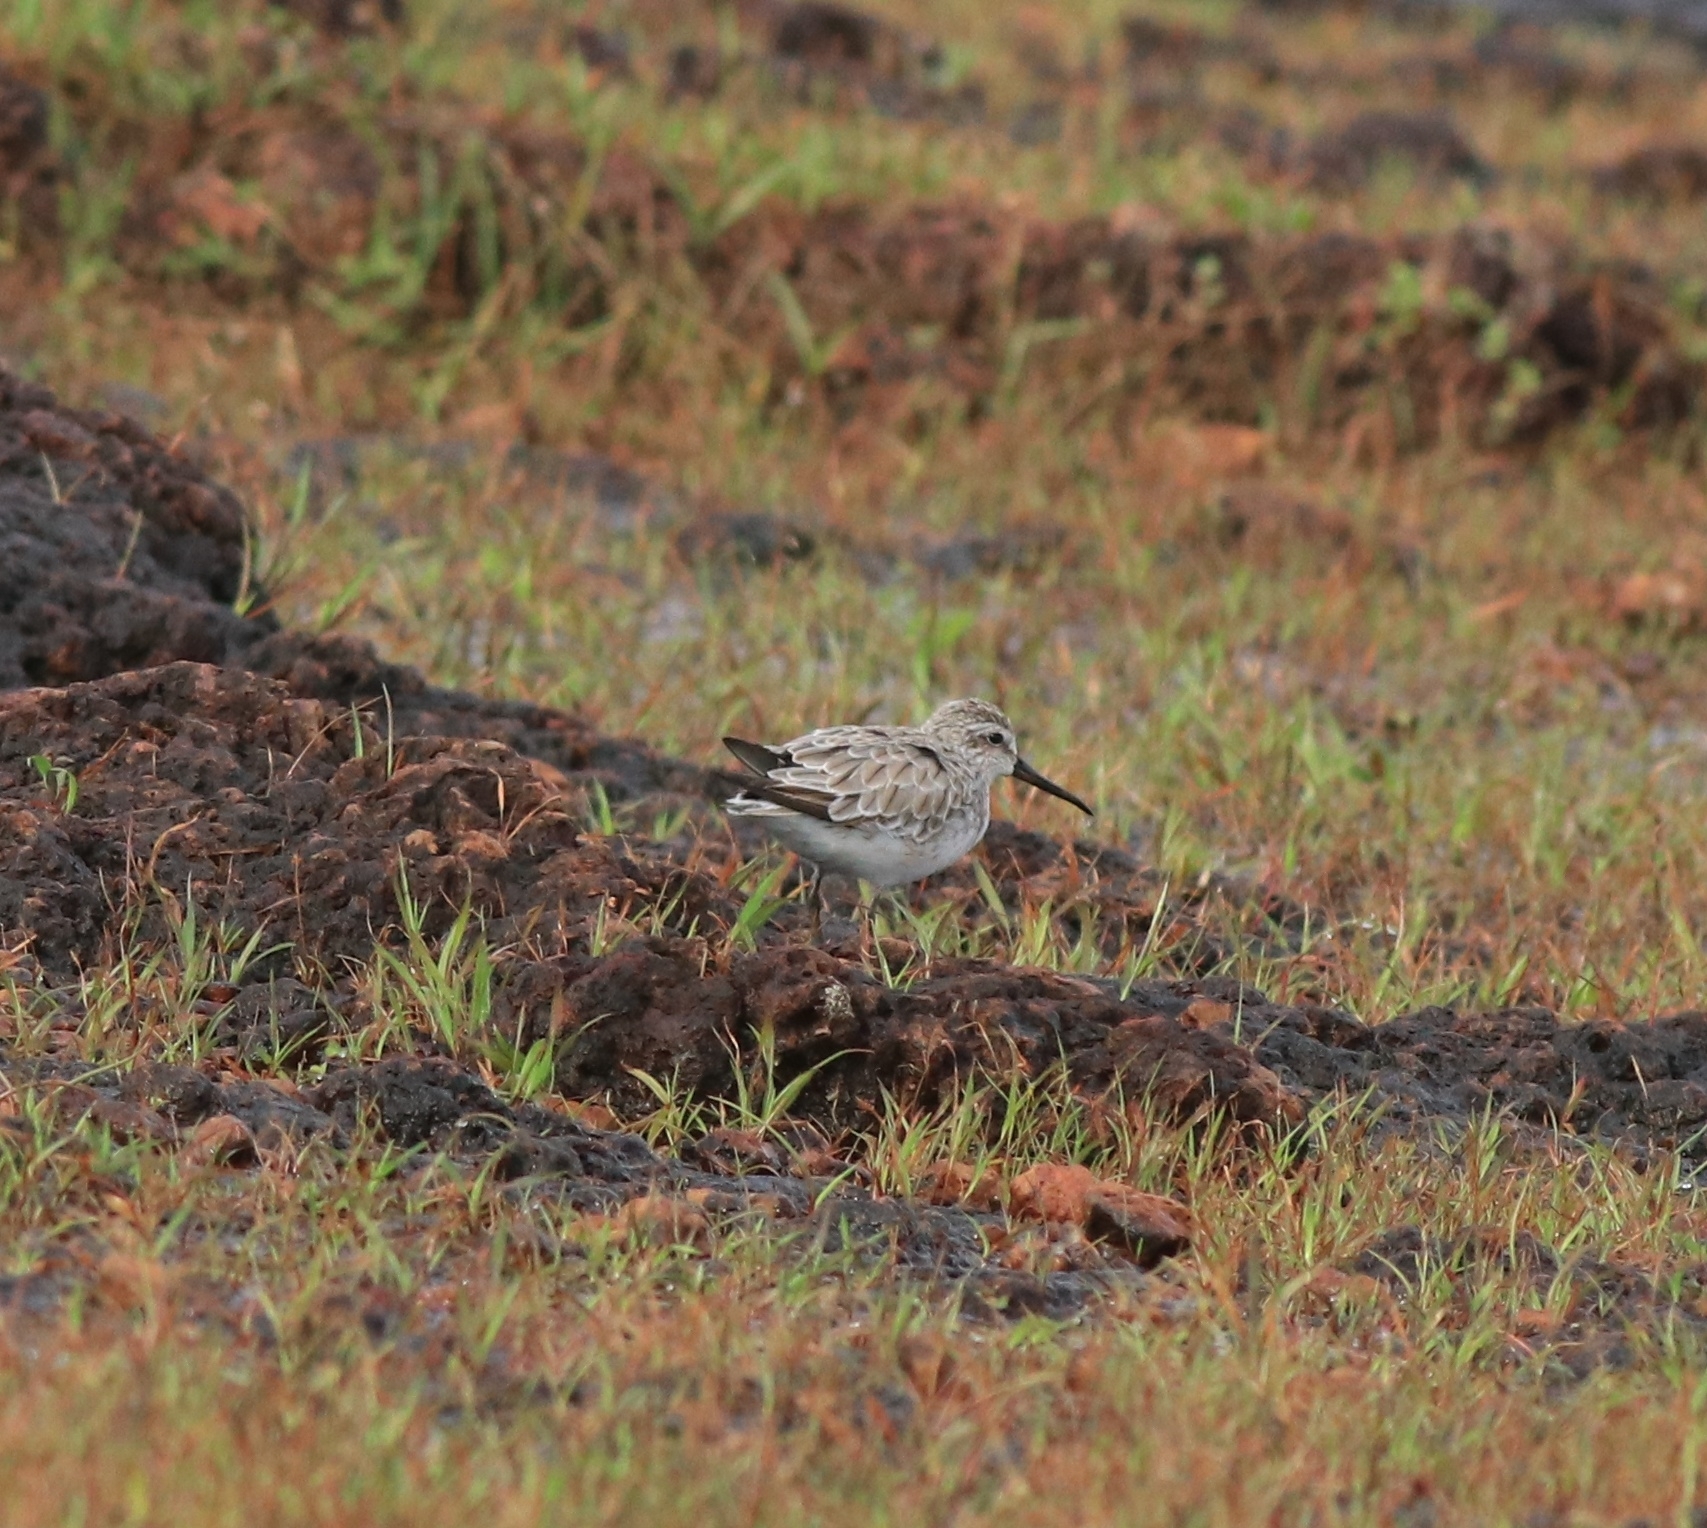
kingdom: Animalia
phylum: Chordata
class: Aves
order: Charadriiformes
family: Scolopacidae
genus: Calidris
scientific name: Calidris ferruginea
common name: Curlew sandpiper
